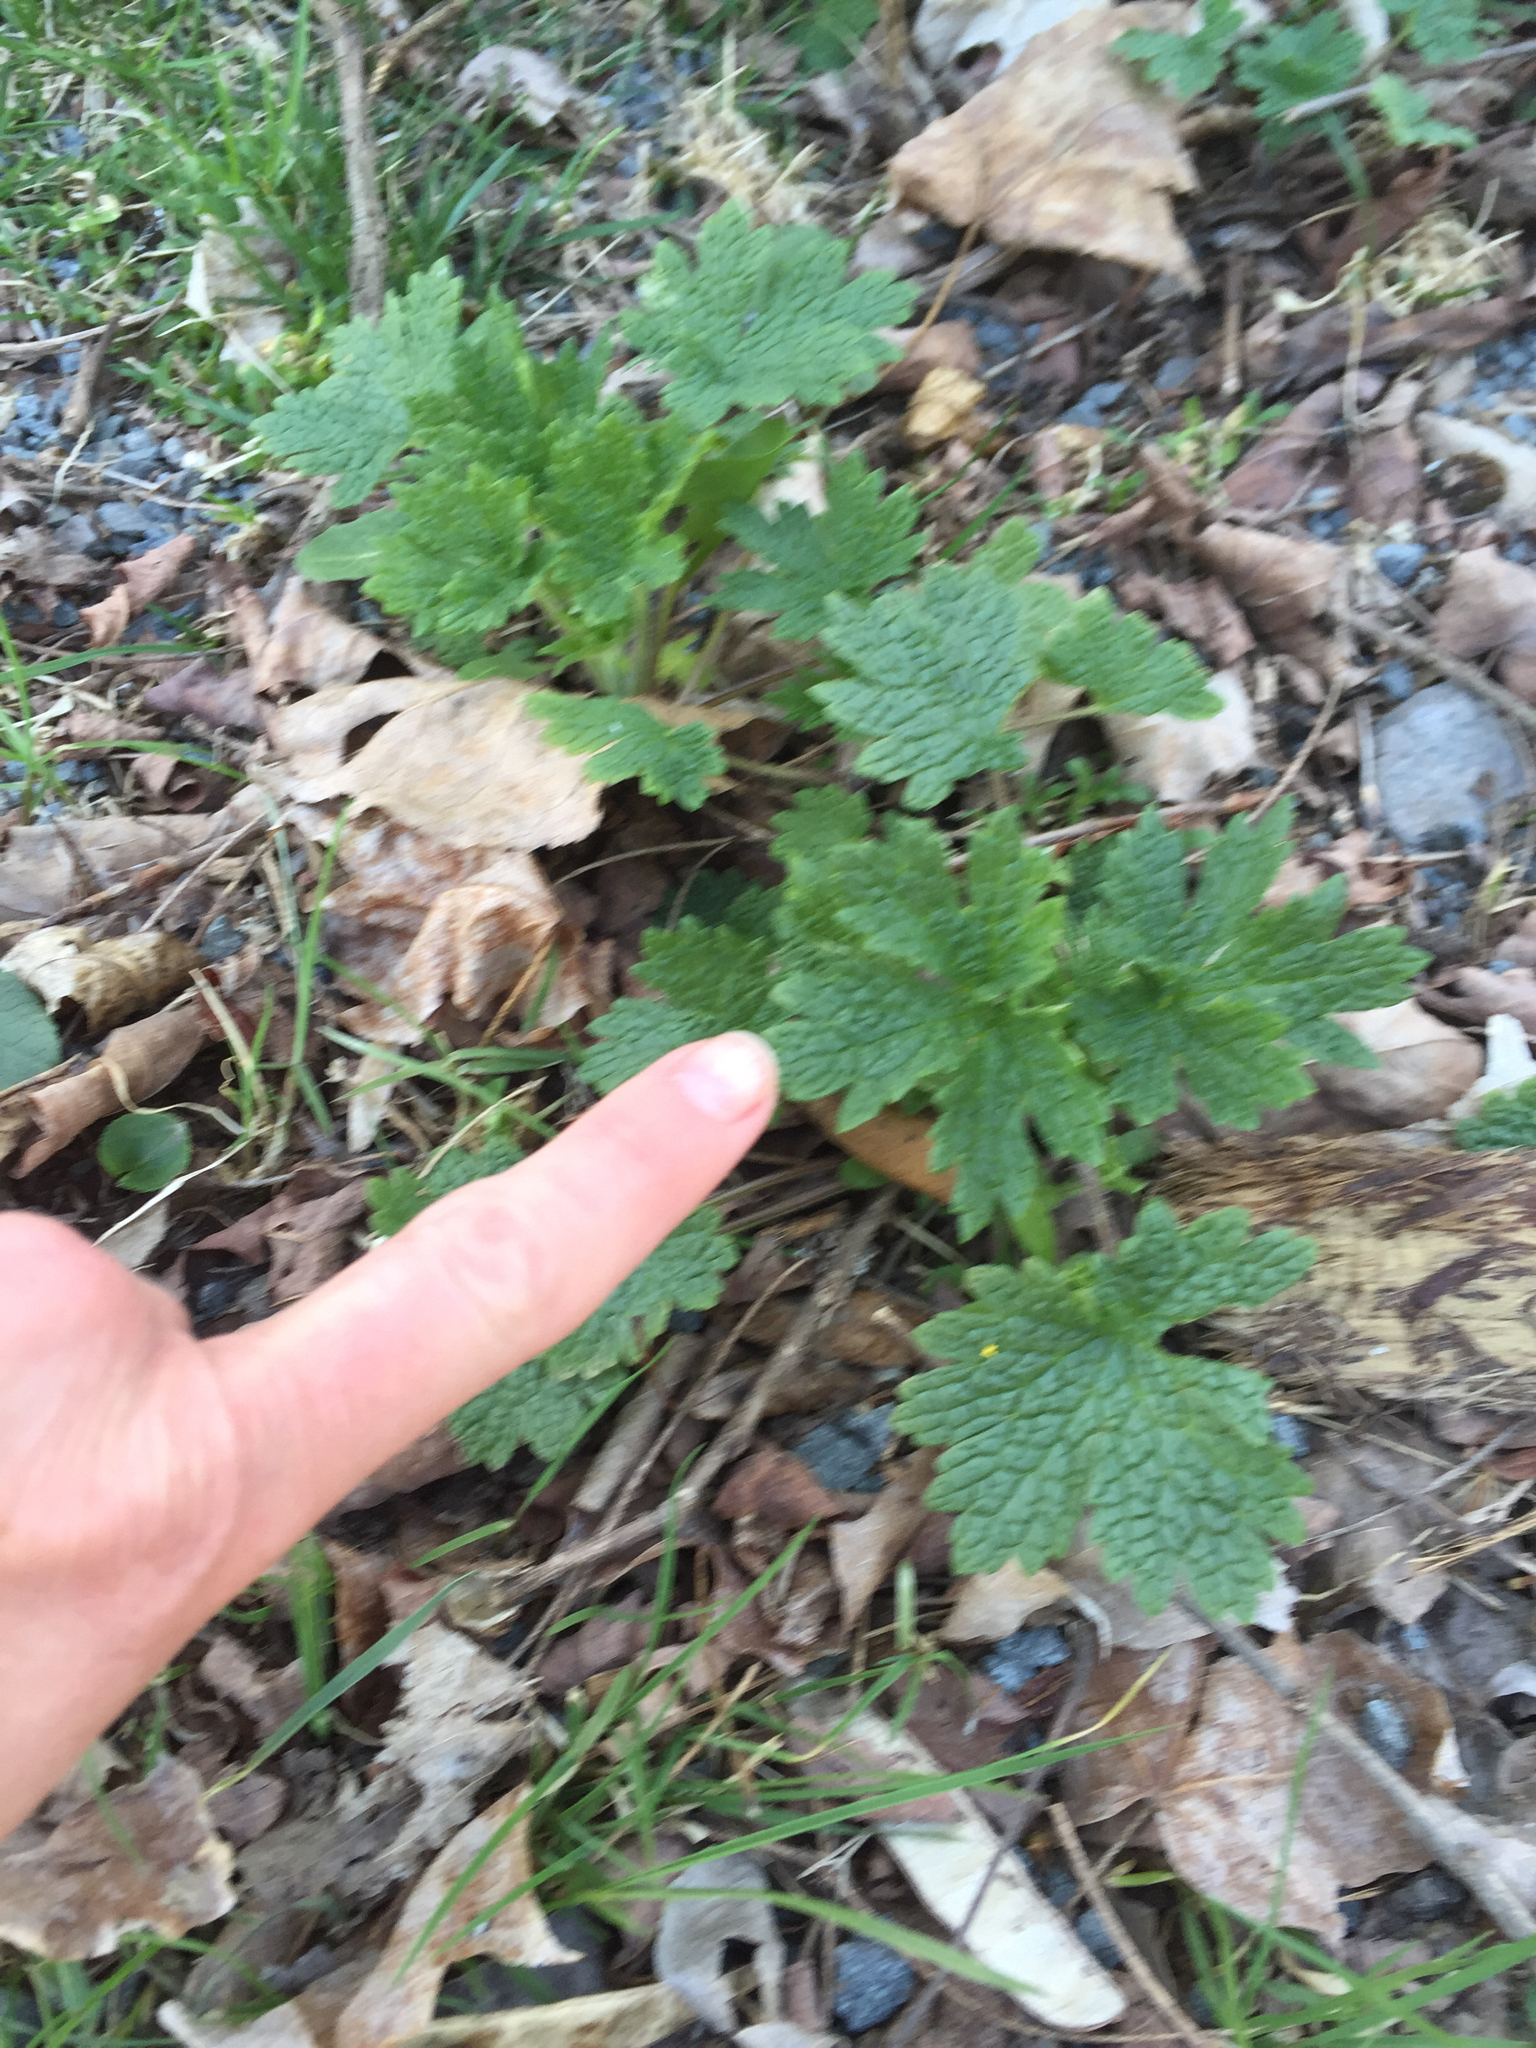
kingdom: Plantae
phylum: Tracheophyta
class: Magnoliopsida
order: Lamiales
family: Lamiaceae
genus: Leonurus
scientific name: Leonurus cardiaca
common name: Motherwort
